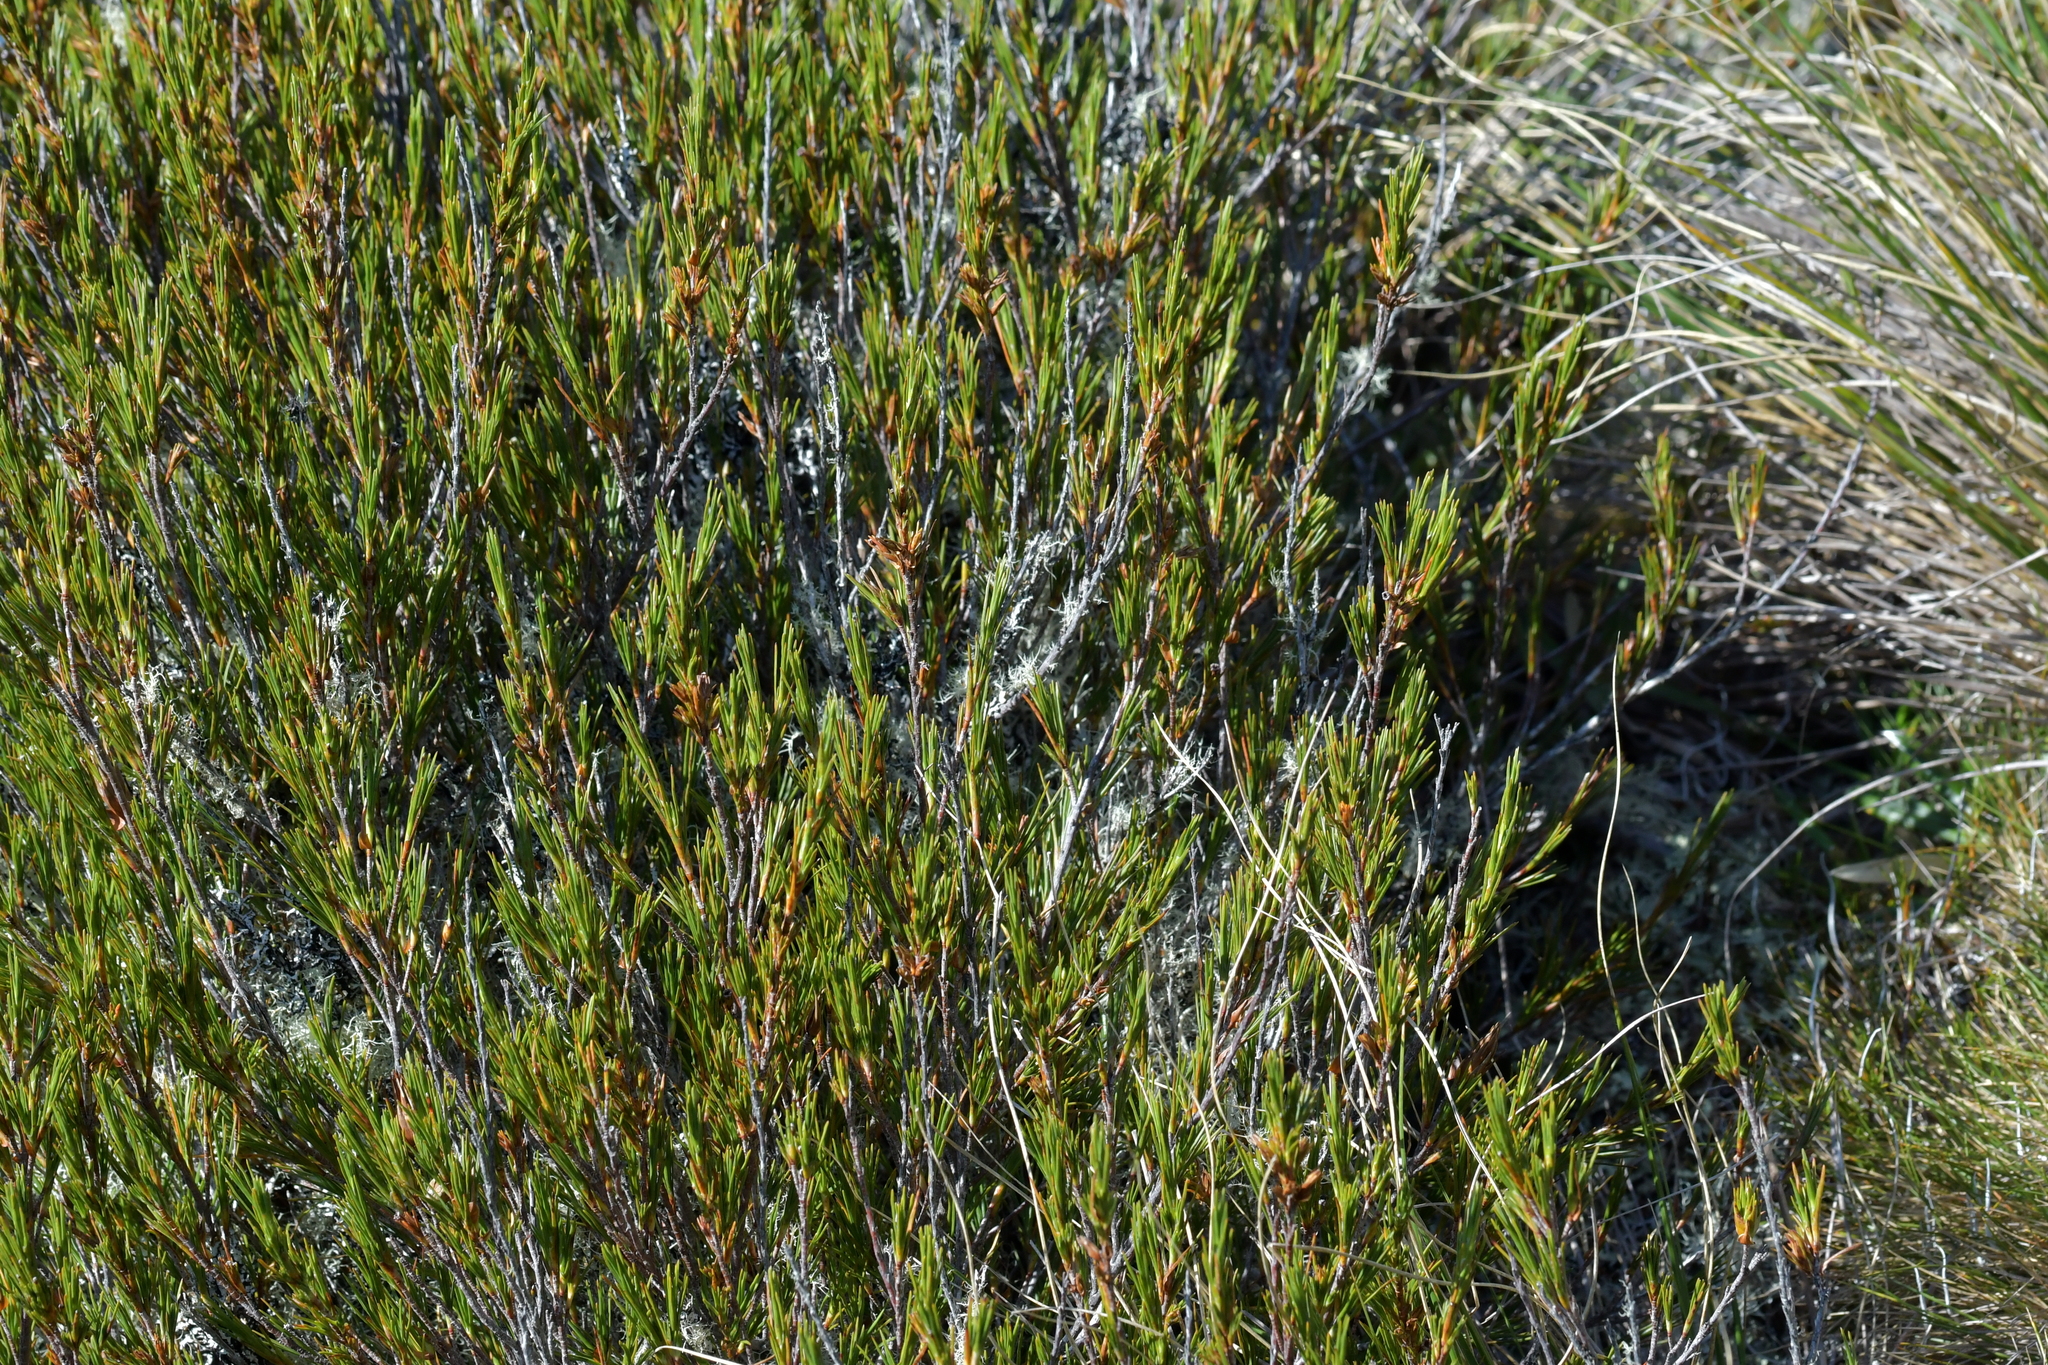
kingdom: Plantae
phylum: Tracheophyta
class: Magnoliopsida
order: Ericales
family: Ericaceae
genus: Dracophyllum
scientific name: Dracophyllum rosmarinifolium
